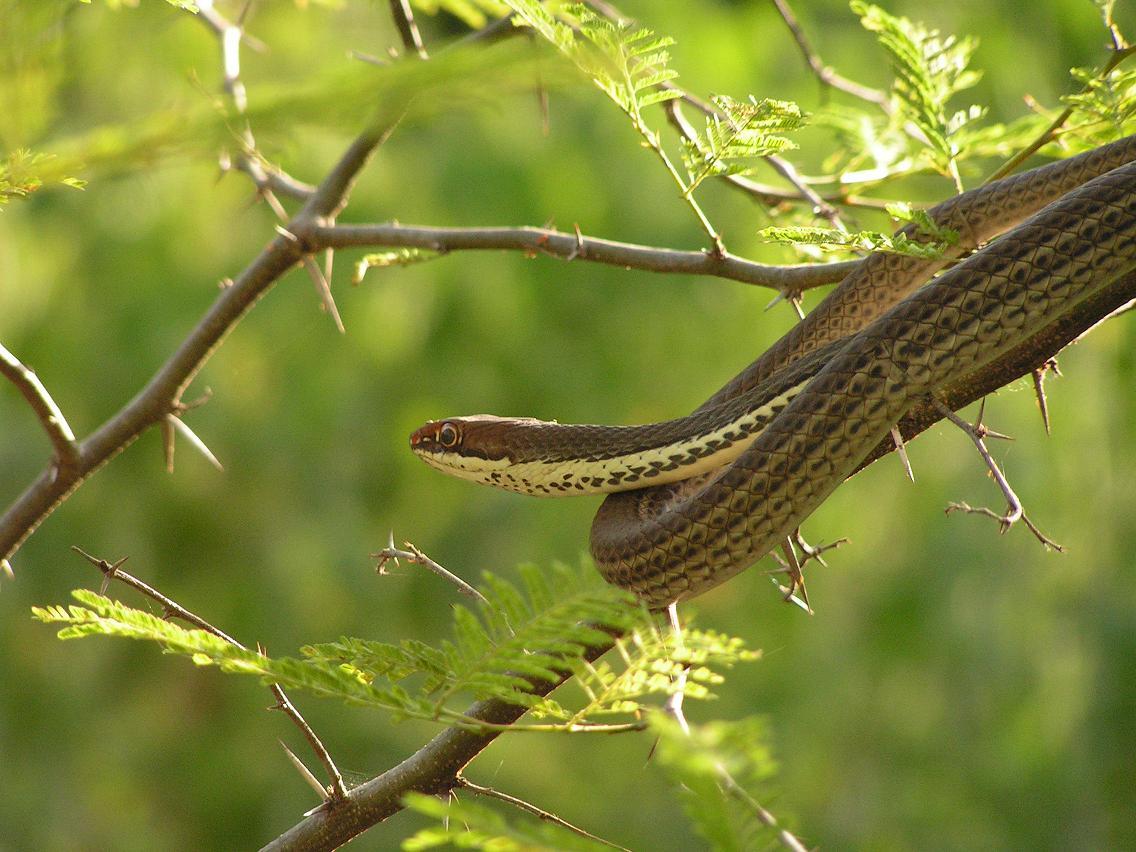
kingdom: Animalia
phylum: Chordata
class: Squamata
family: Colubridae
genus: Masticophis
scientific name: Masticophis bilineatus
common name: Sonoran whipsnake
